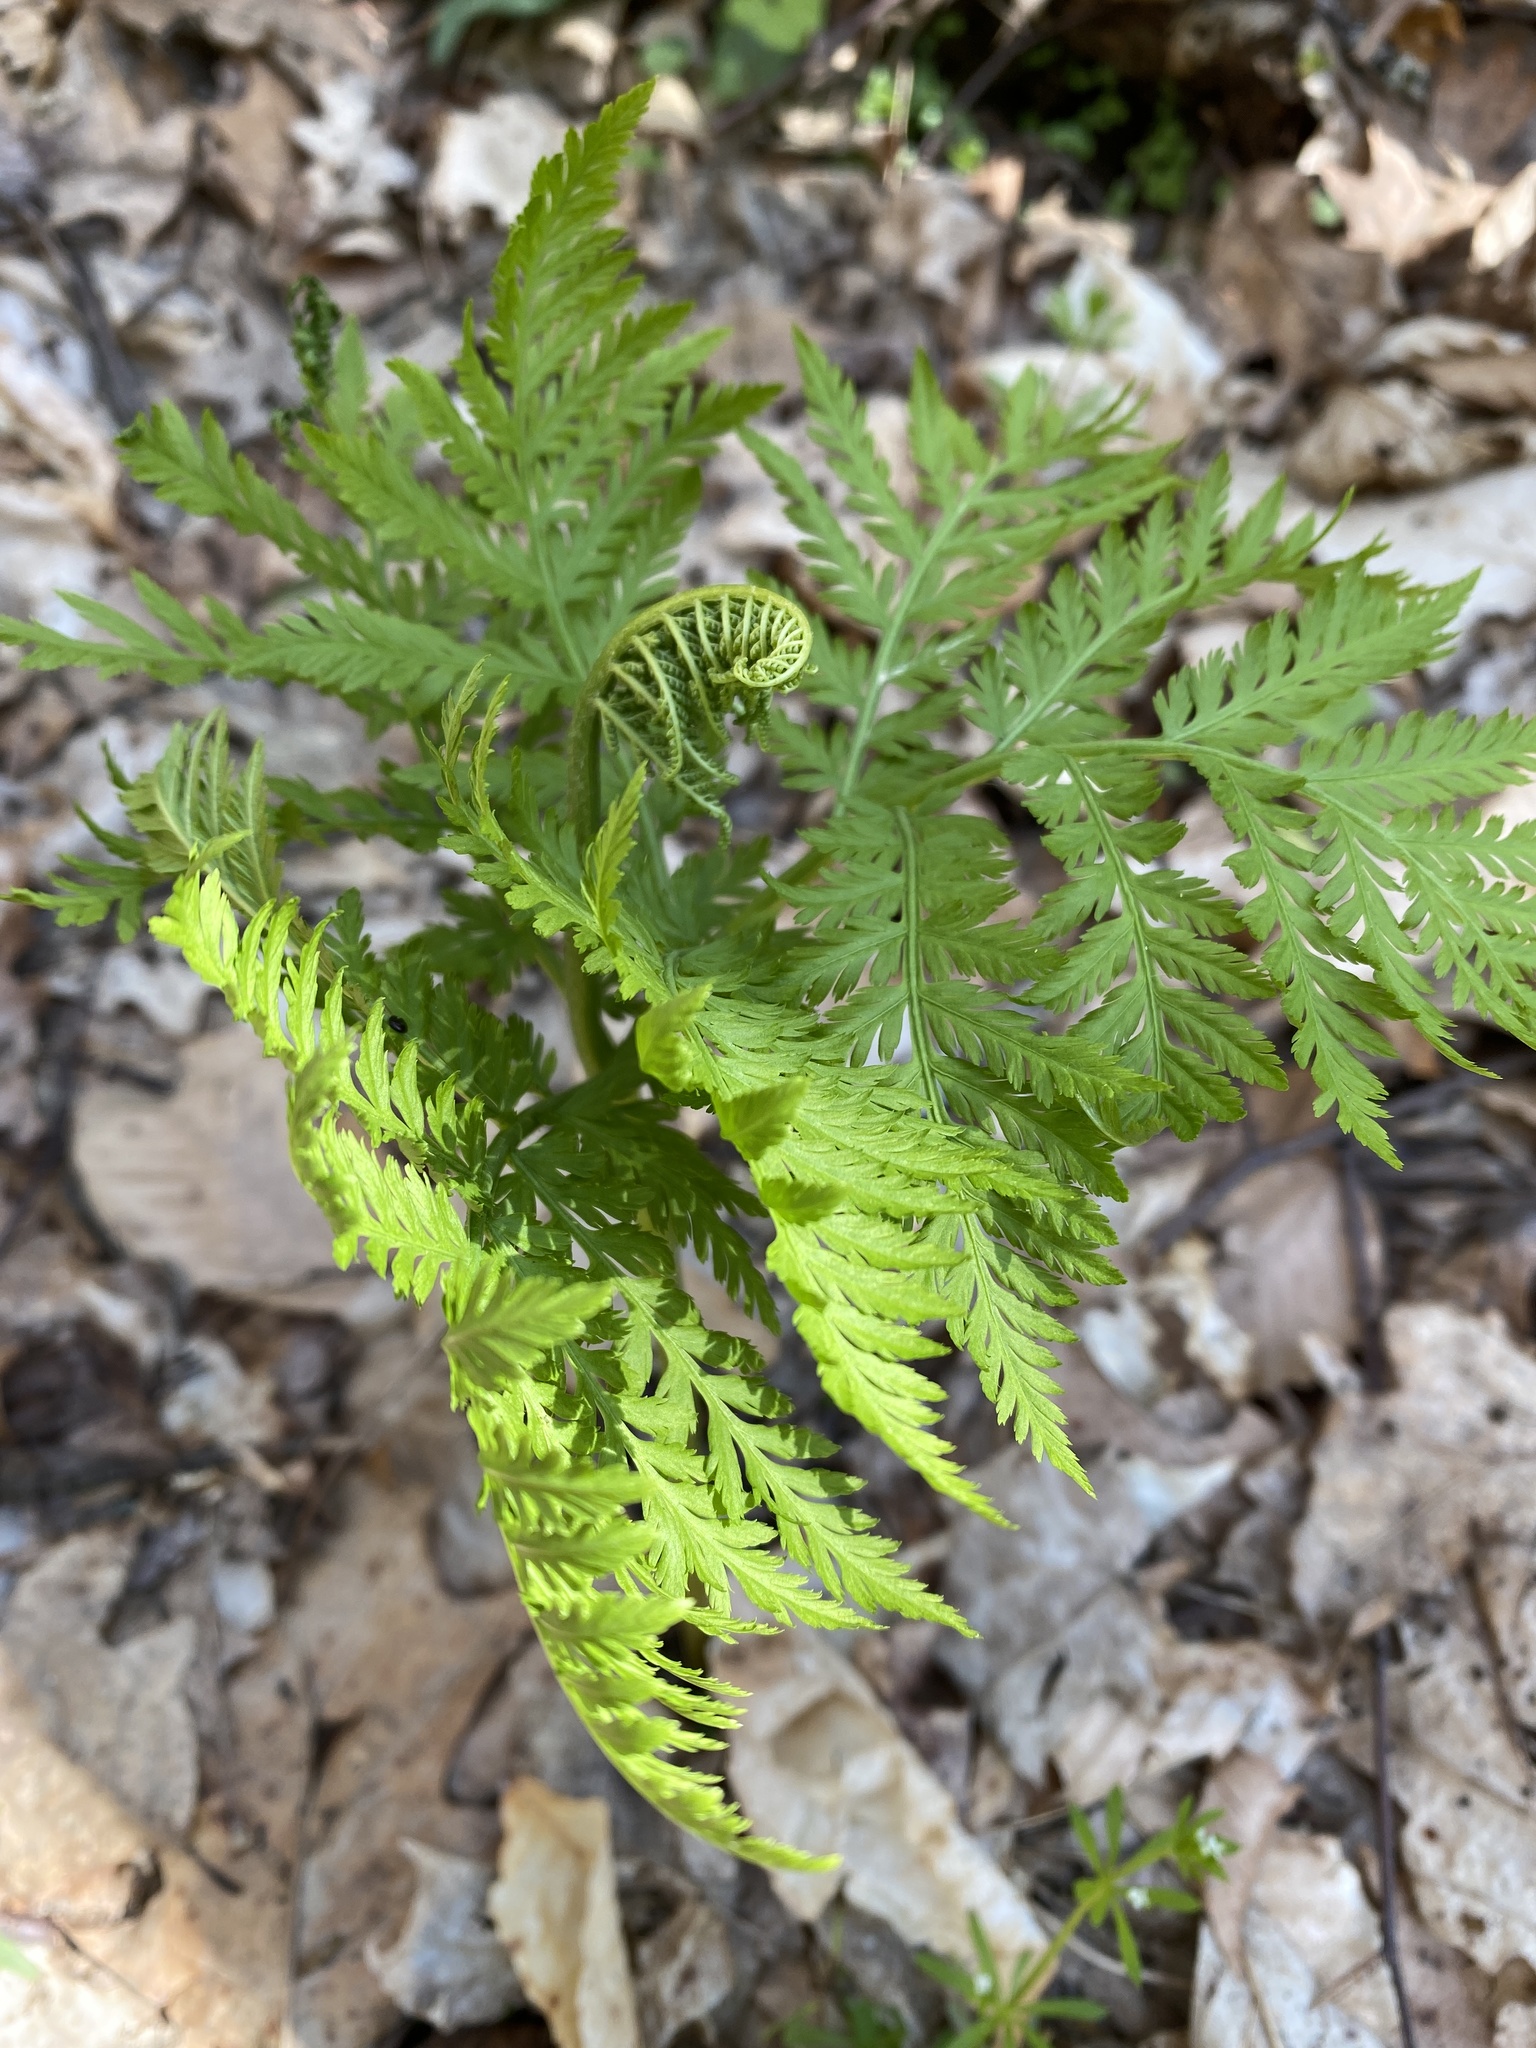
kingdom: Plantae
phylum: Tracheophyta
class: Polypodiopsida
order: Ophioglossales
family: Ophioglossaceae
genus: Botrypus
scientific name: Botrypus virginianus
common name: Common grapefern
